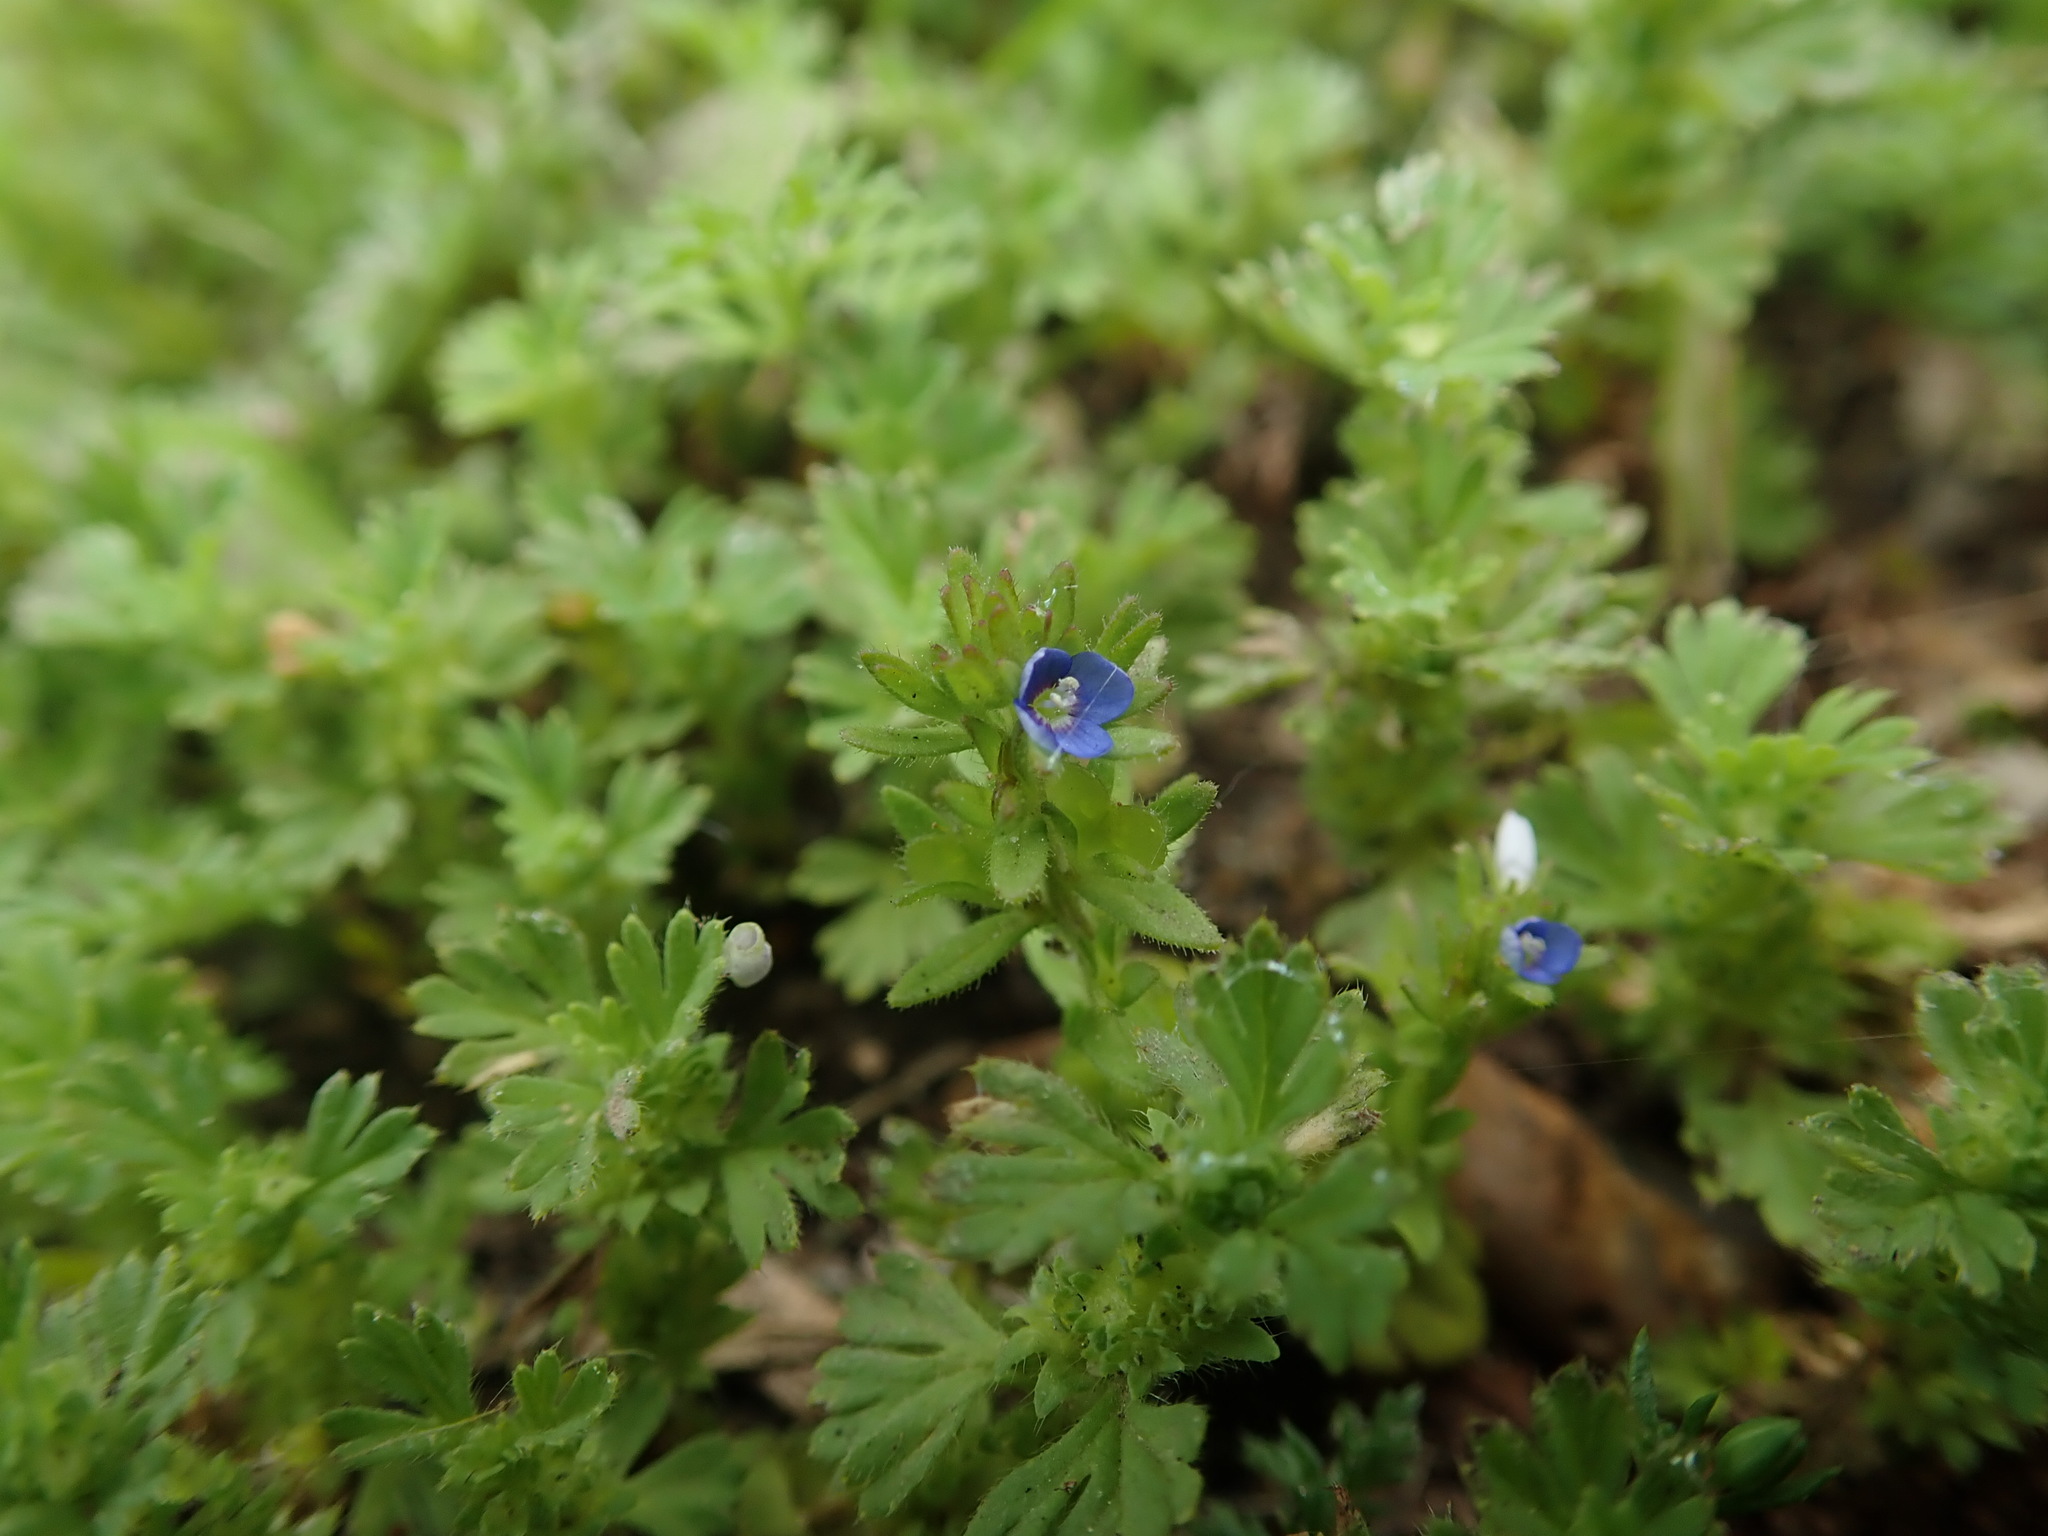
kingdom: Plantae
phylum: Tracheophyta
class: Magnoliopsida
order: Lamiales
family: Plantaginaceae
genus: Veronica
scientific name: Veronica arvensis
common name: Corn speedwell
